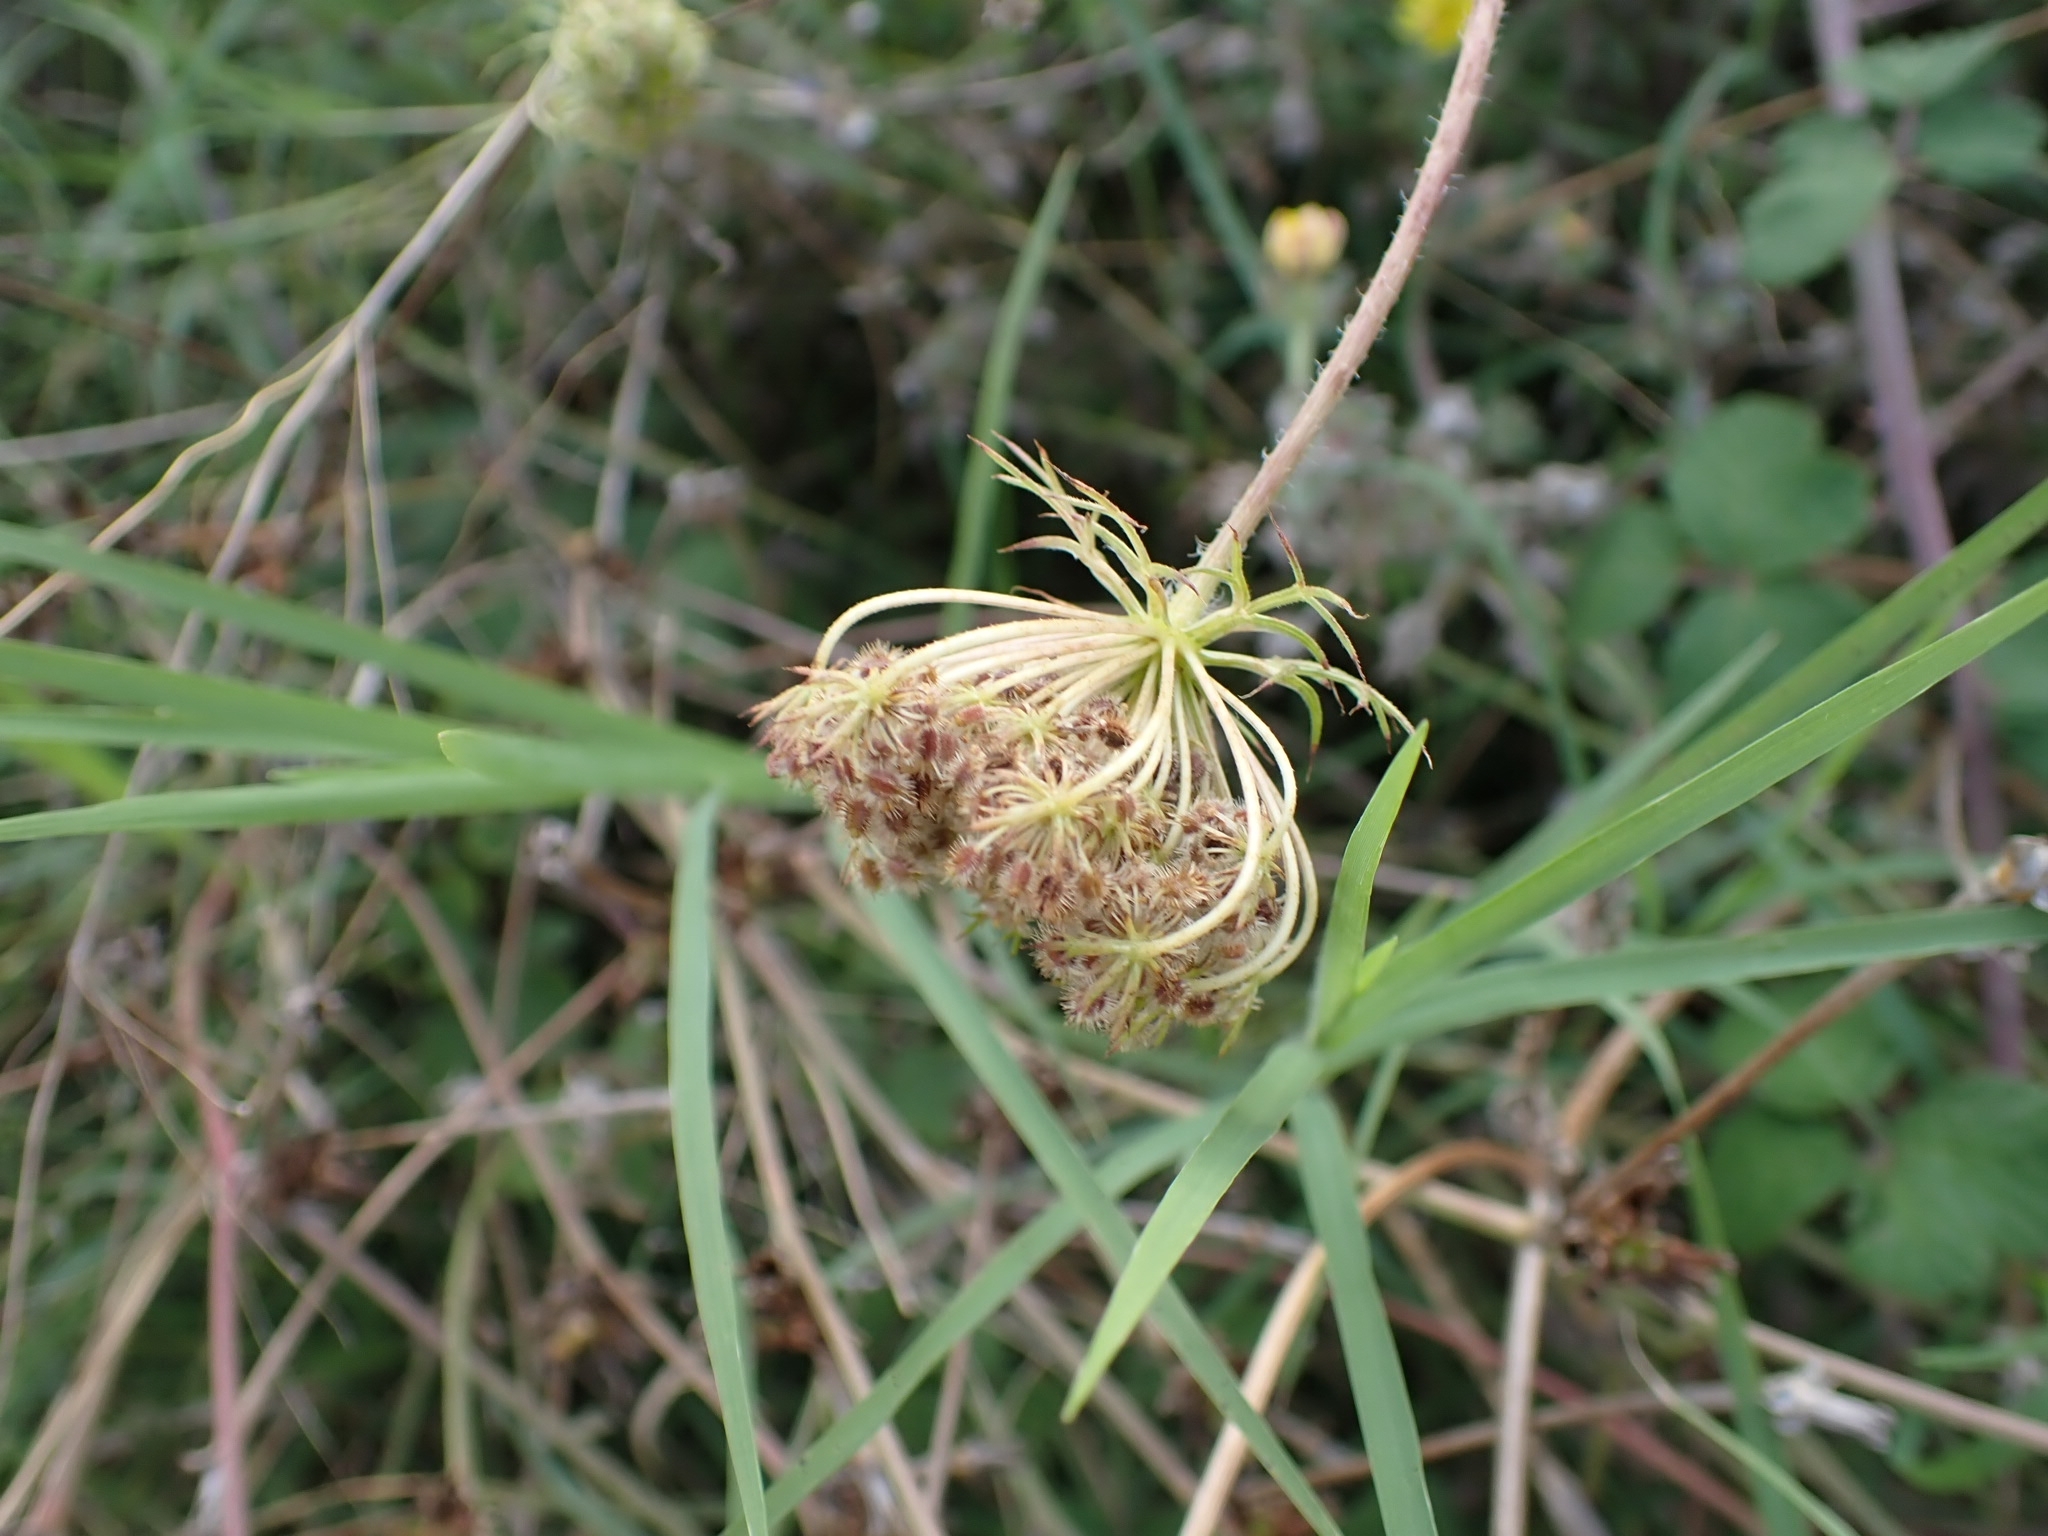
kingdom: Plantae
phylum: Tracheophyta
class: Magnoliopsida
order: Apiales
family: Apiaceae
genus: Daucus
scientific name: Daucus carota
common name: Wild carrot
